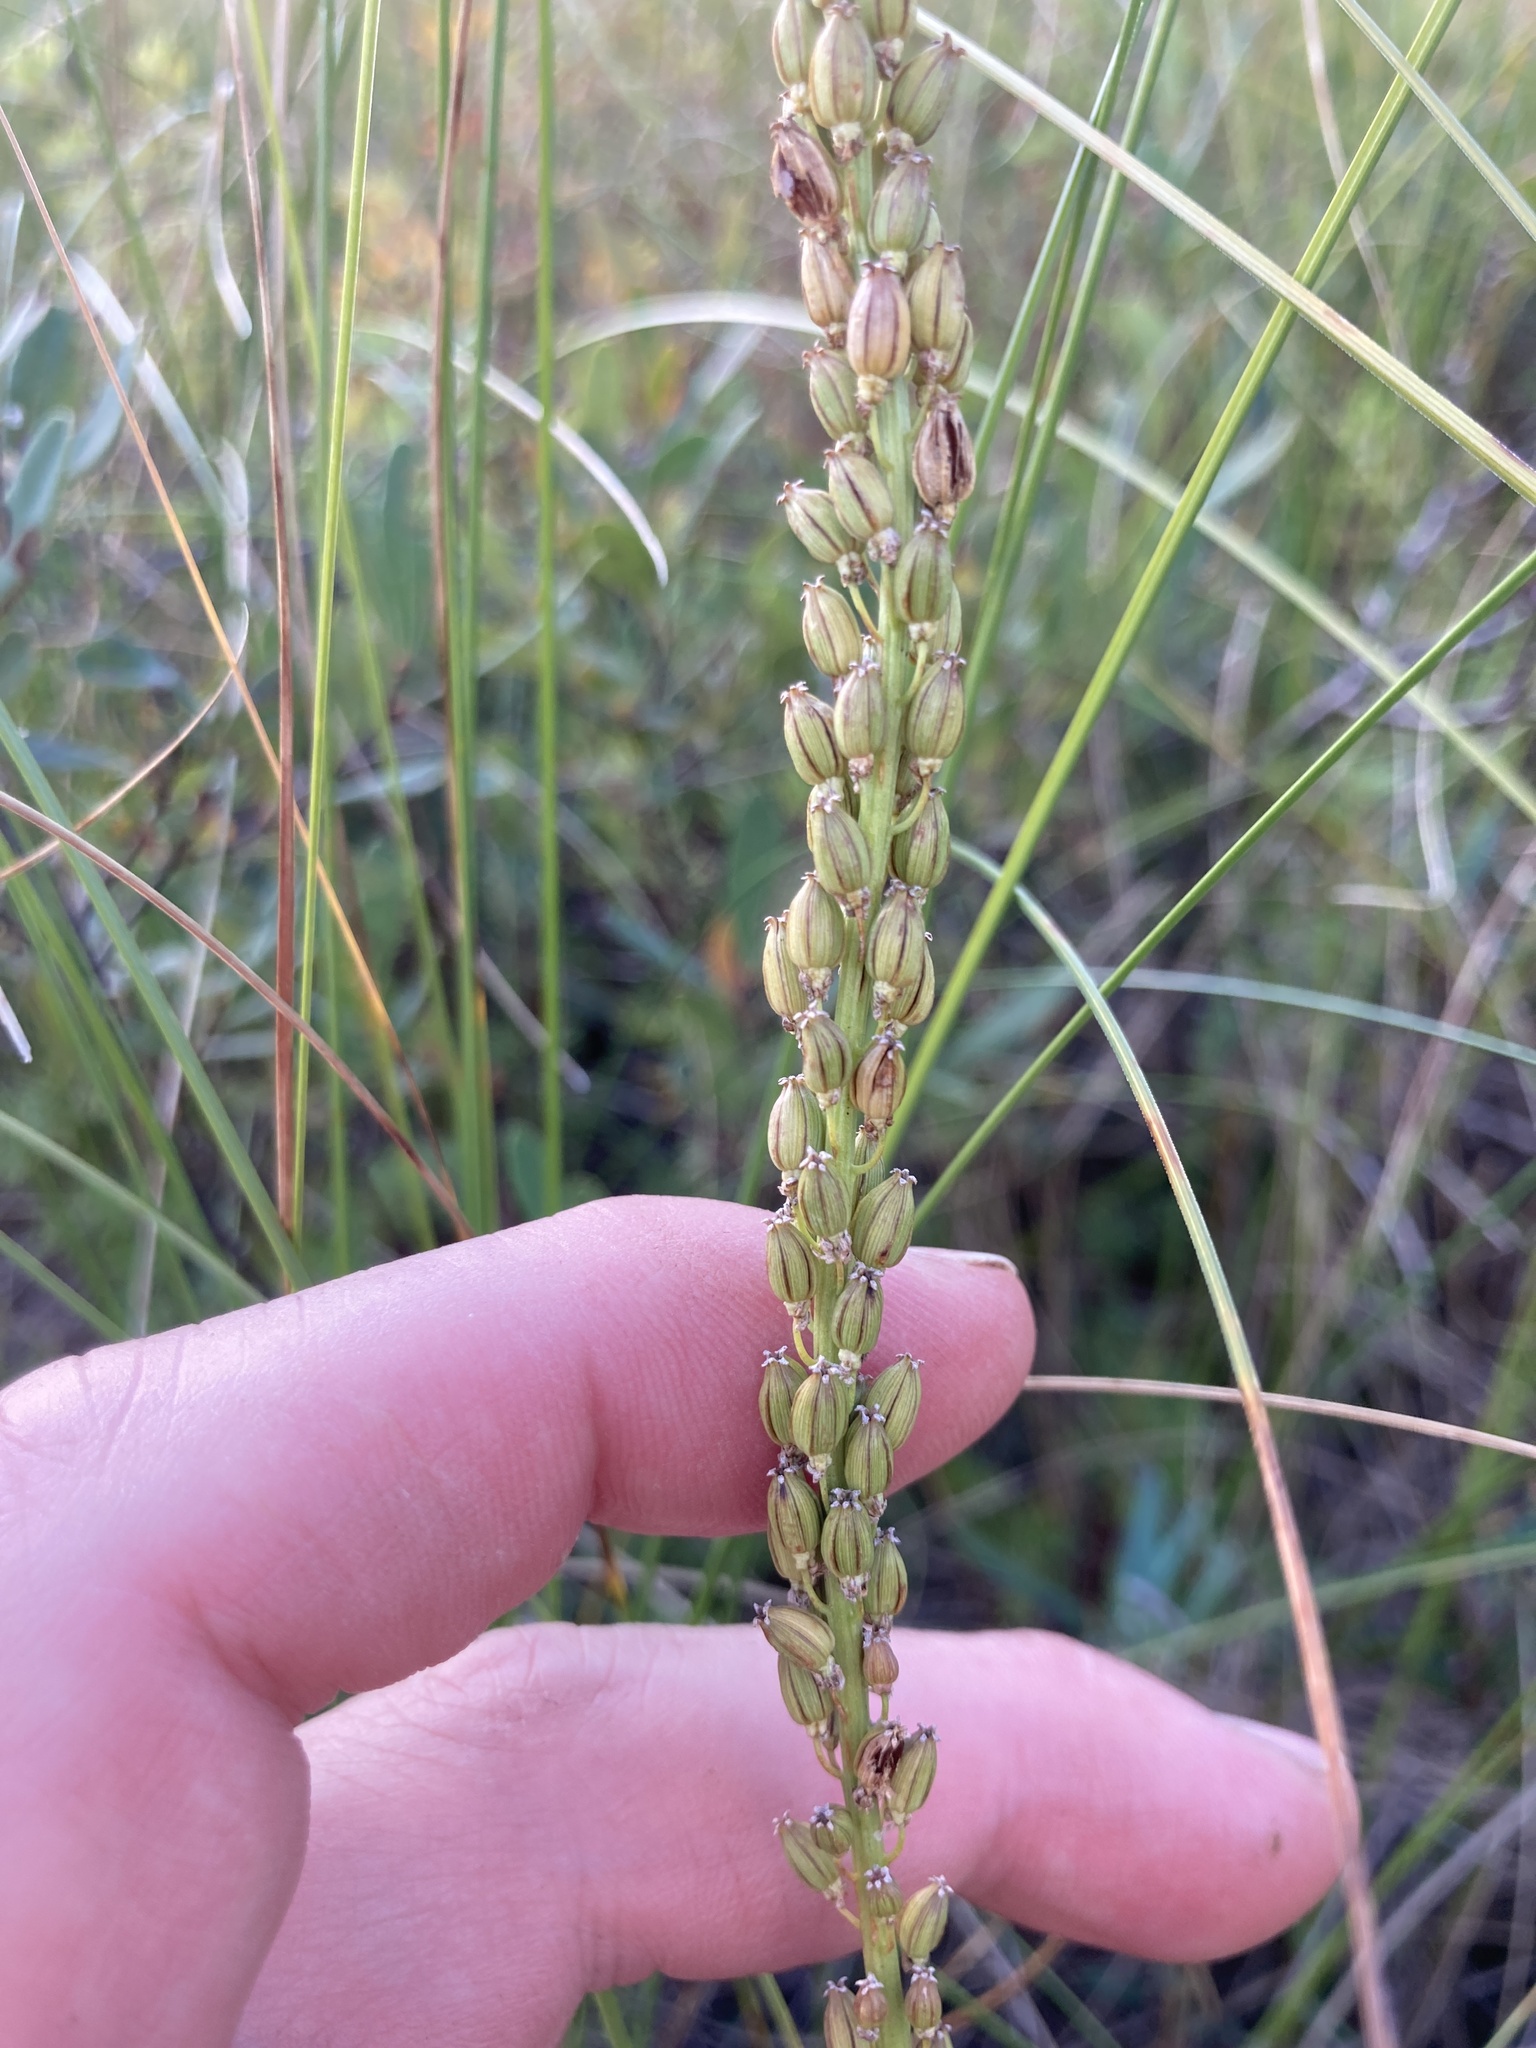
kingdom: Plantae
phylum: Tracheophyta
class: Liliopsida
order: Alismatales
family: Juncaginaceae
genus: Triglochin
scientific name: Triglochin maritima
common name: Sea arrowgrass
